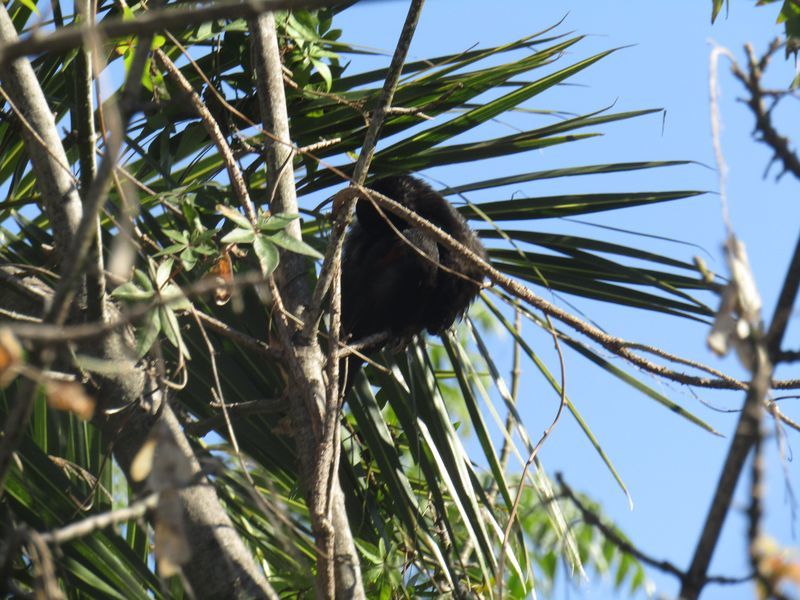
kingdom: Animalia
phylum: Chordata
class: Aves
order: Passeriformes
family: Icteridae
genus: Icterus
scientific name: Icterus cayanensis
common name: Epaulet oriole
